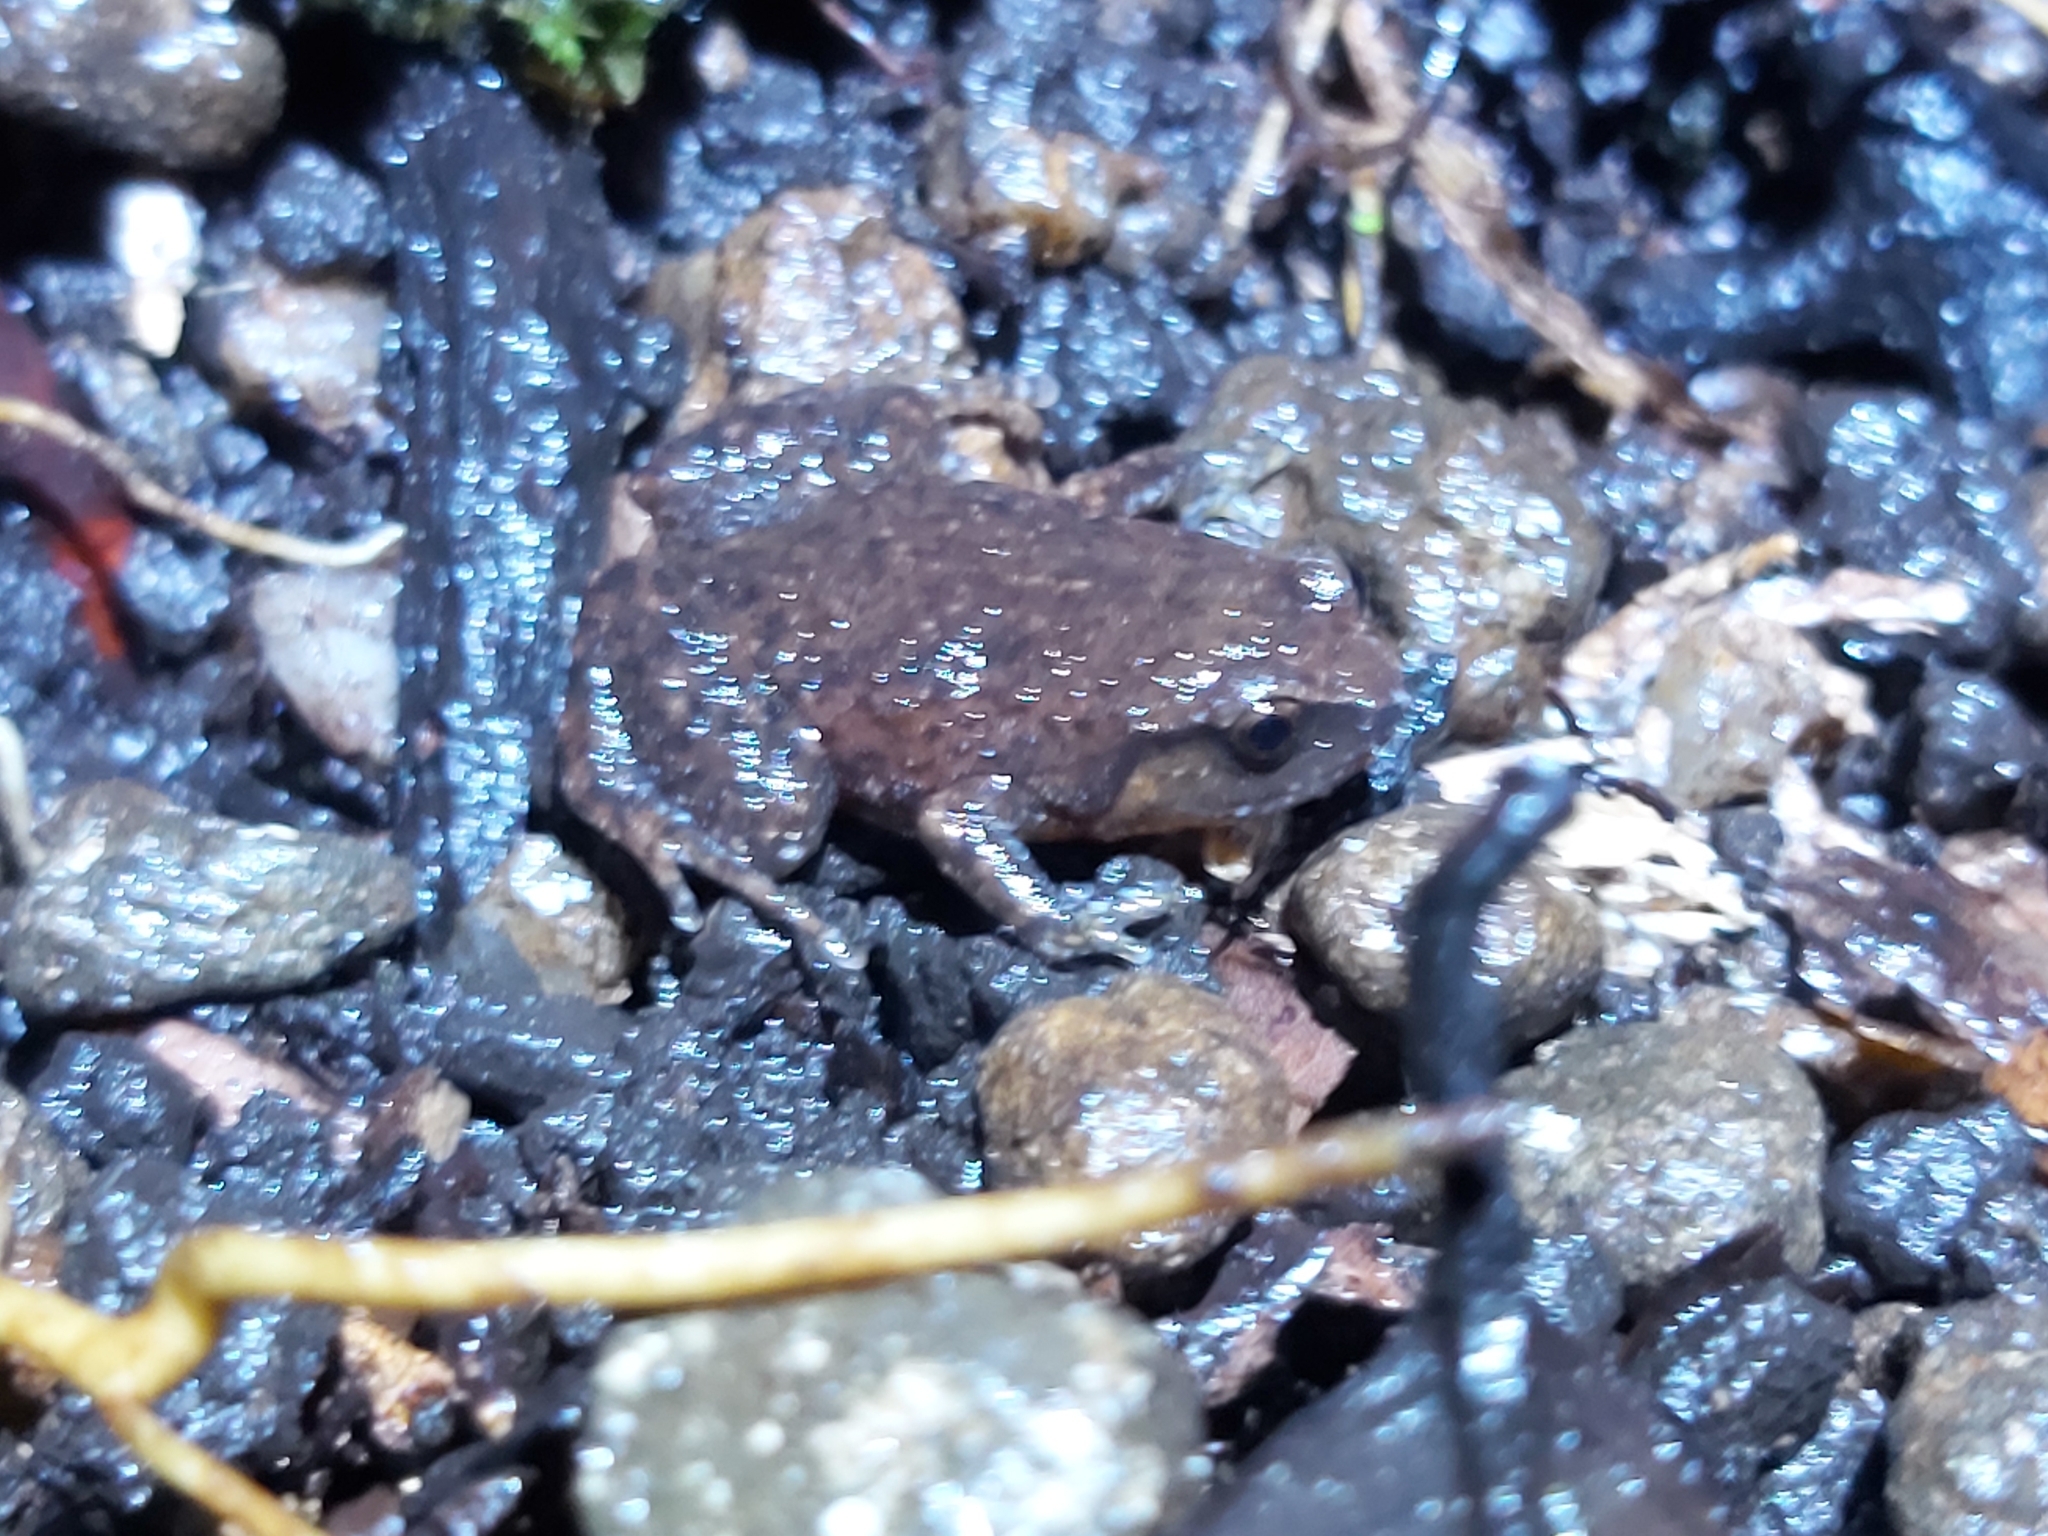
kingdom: Animalia
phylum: Chordata
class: Amphibia
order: Anura
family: Microhylidae
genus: Austrochaperina
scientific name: Austrochaperina robusta
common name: Robust frog
